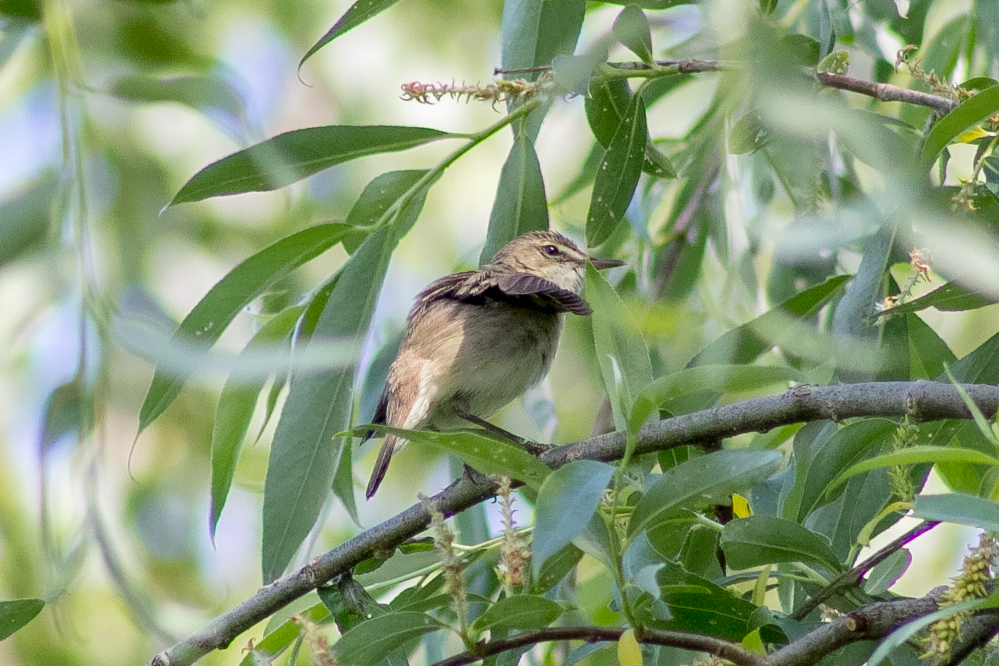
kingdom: Animalia
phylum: Chordata
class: Aves
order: Passeriformes
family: Acrocephalidae
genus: Acrocephalus
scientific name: Acrocephalus dumetorum
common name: Blyth's reed warbler
